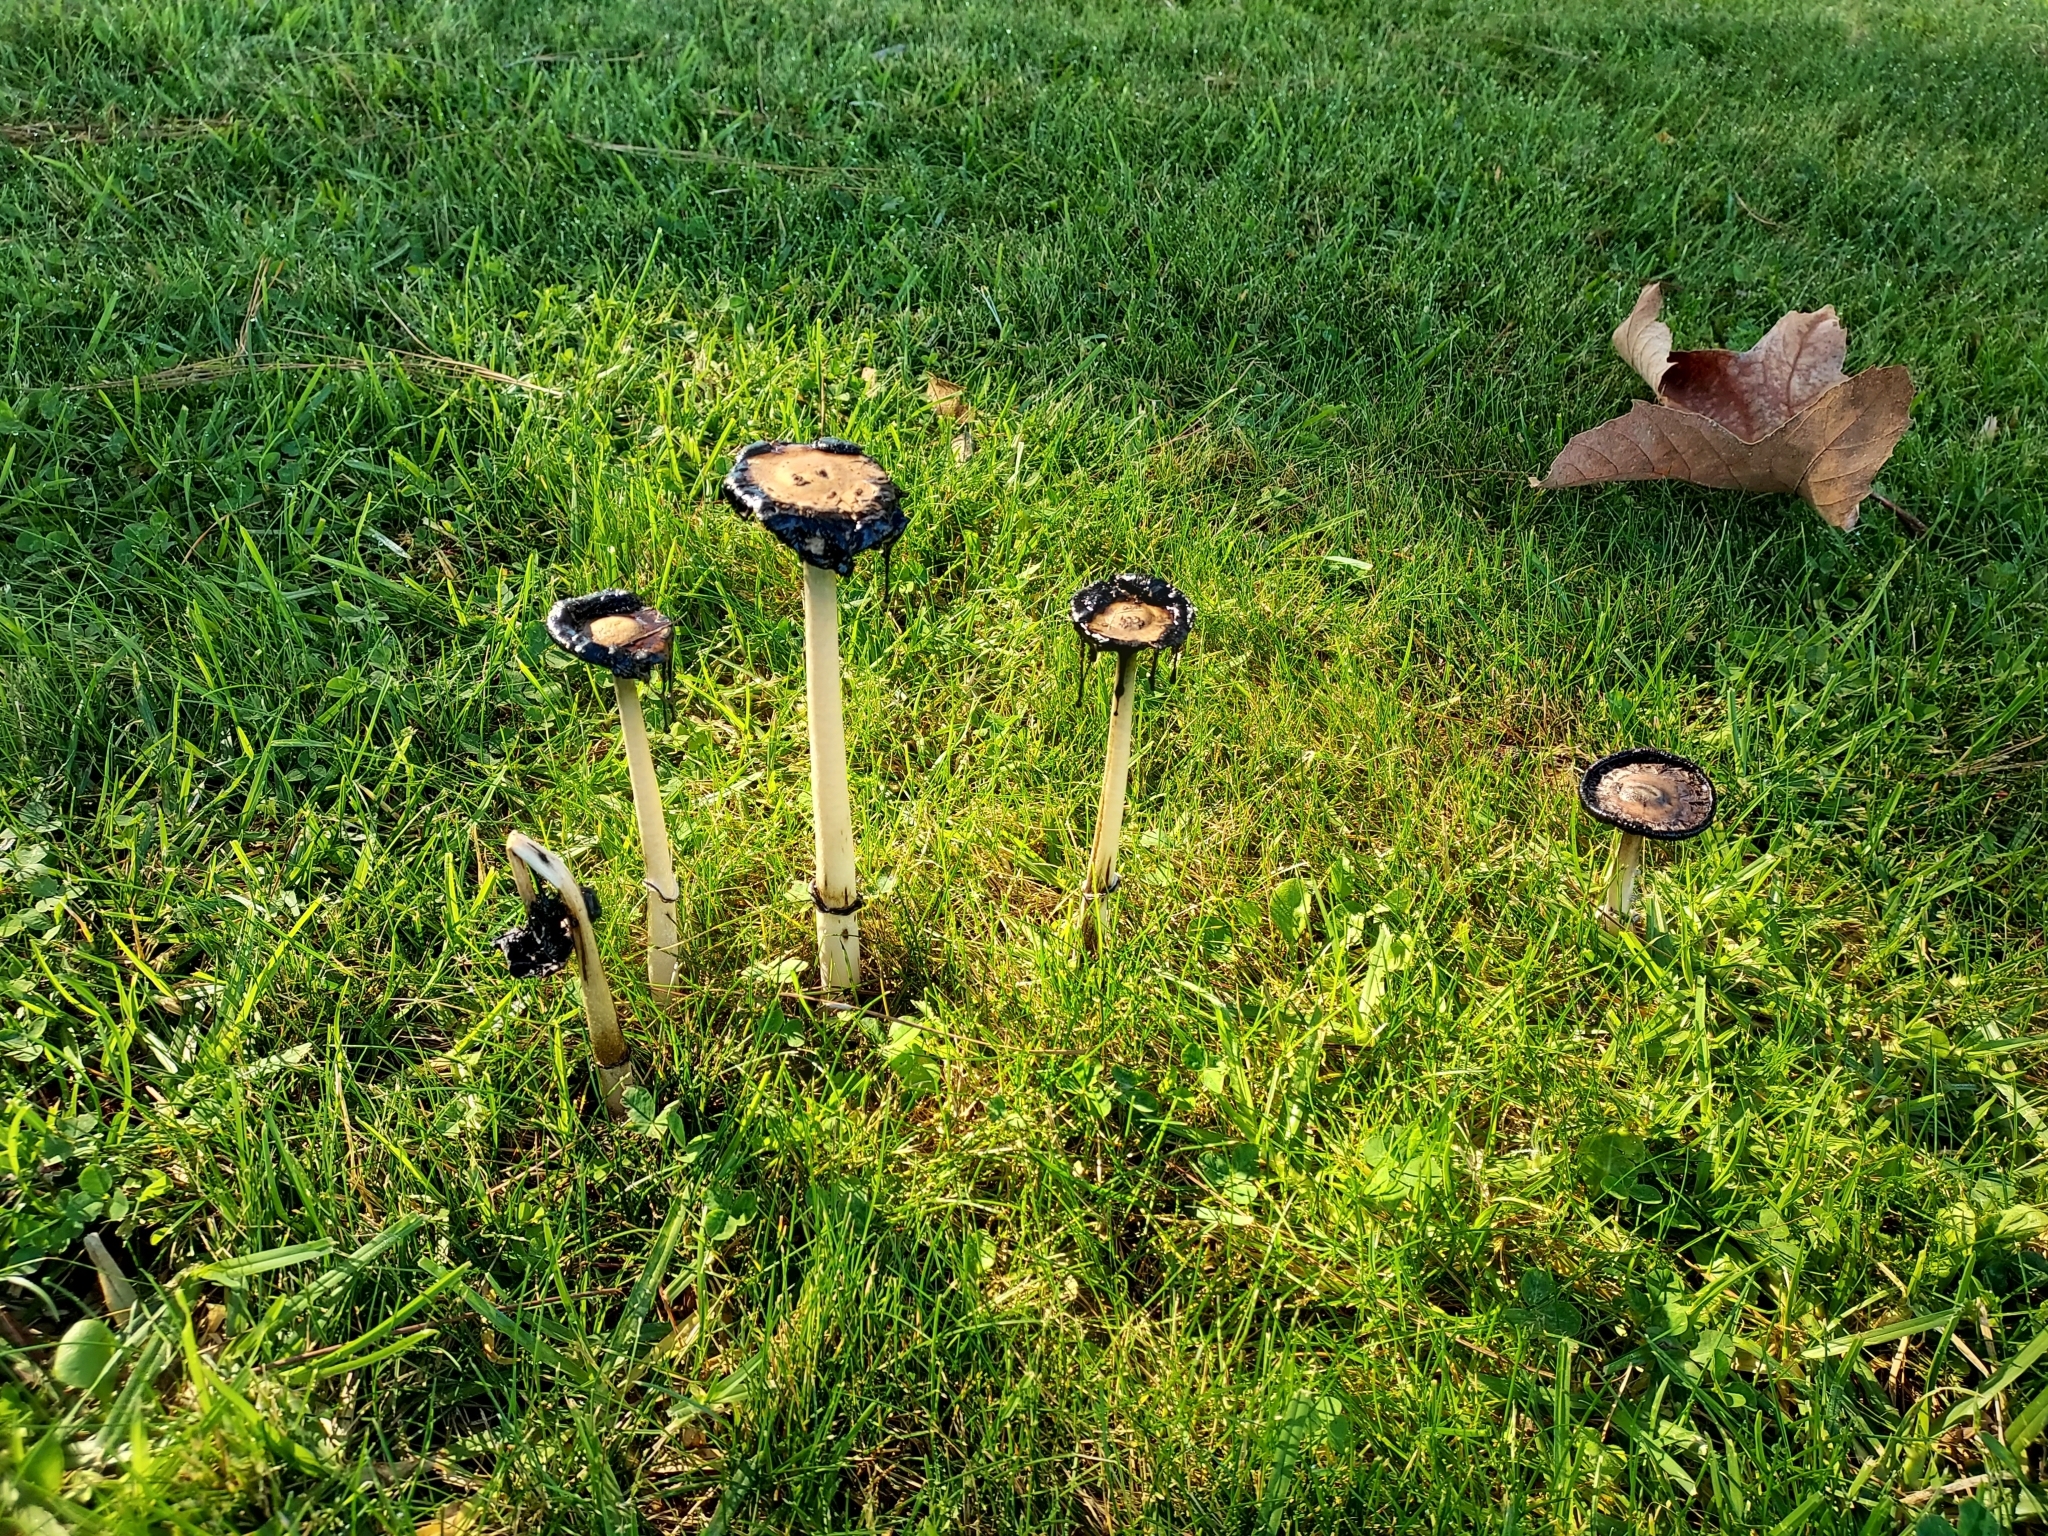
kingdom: Fungi
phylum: Basidiomycota
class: Agaricomycetes
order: Agaricales
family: Agaricaceae
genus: Coprinus
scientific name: Coprinus comatus
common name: Lawyer's wig
